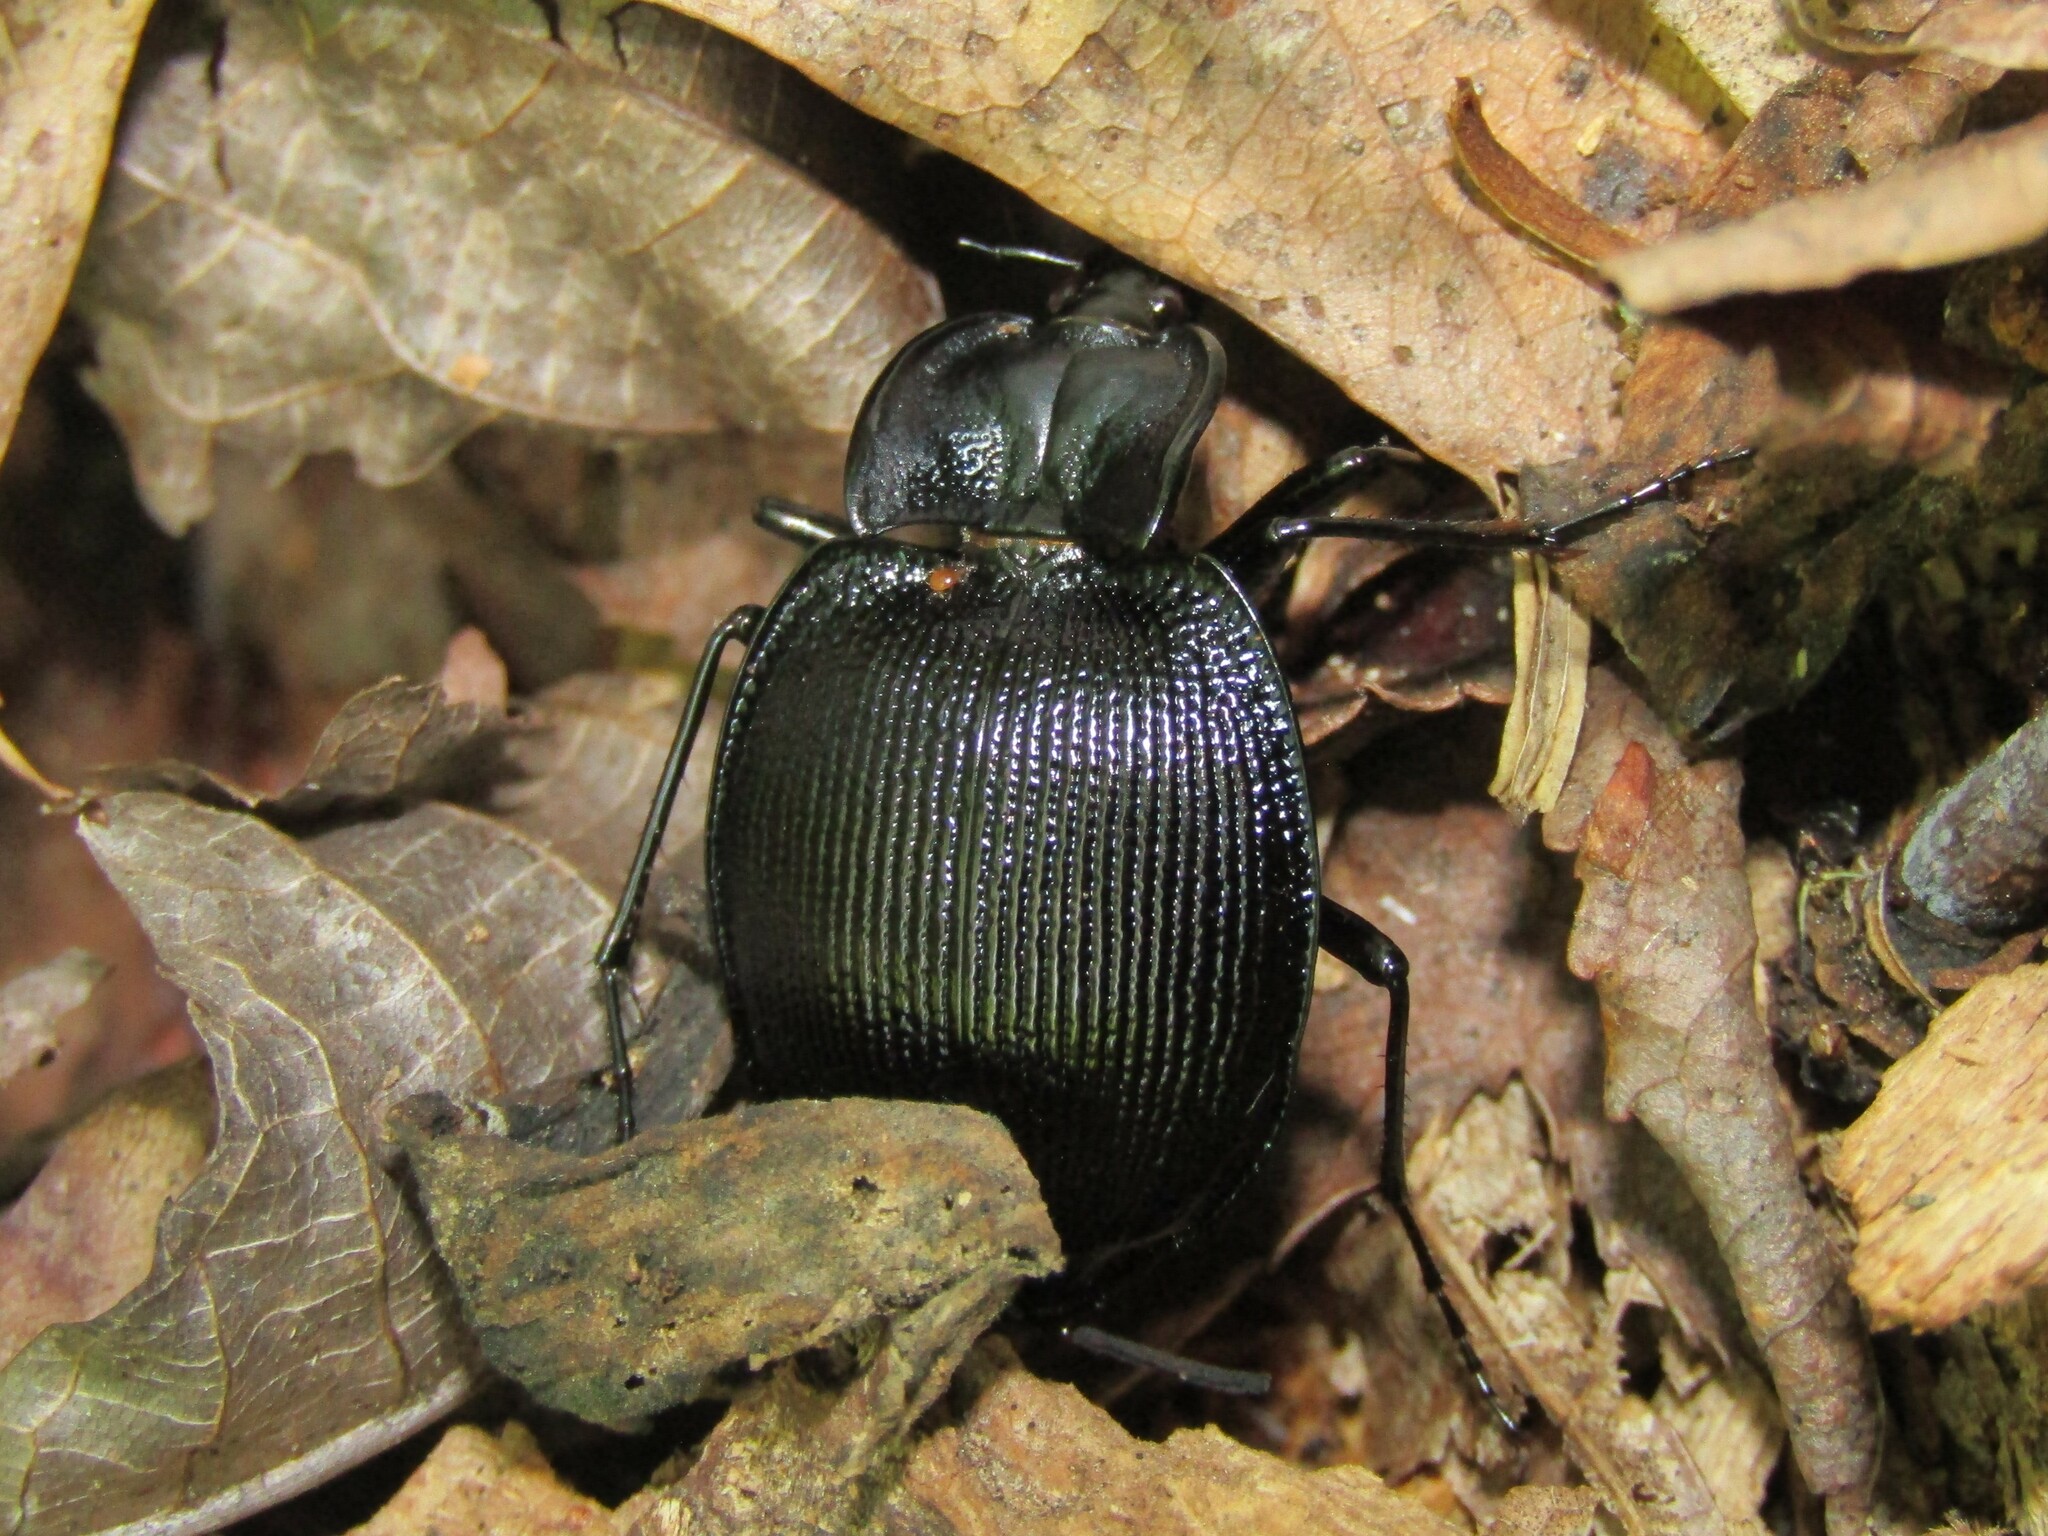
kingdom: Animalia
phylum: Arthropoda
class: Insecta
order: Coleoptera
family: Carabidae
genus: Scaphinotus
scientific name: Scaphinotus unicolor
